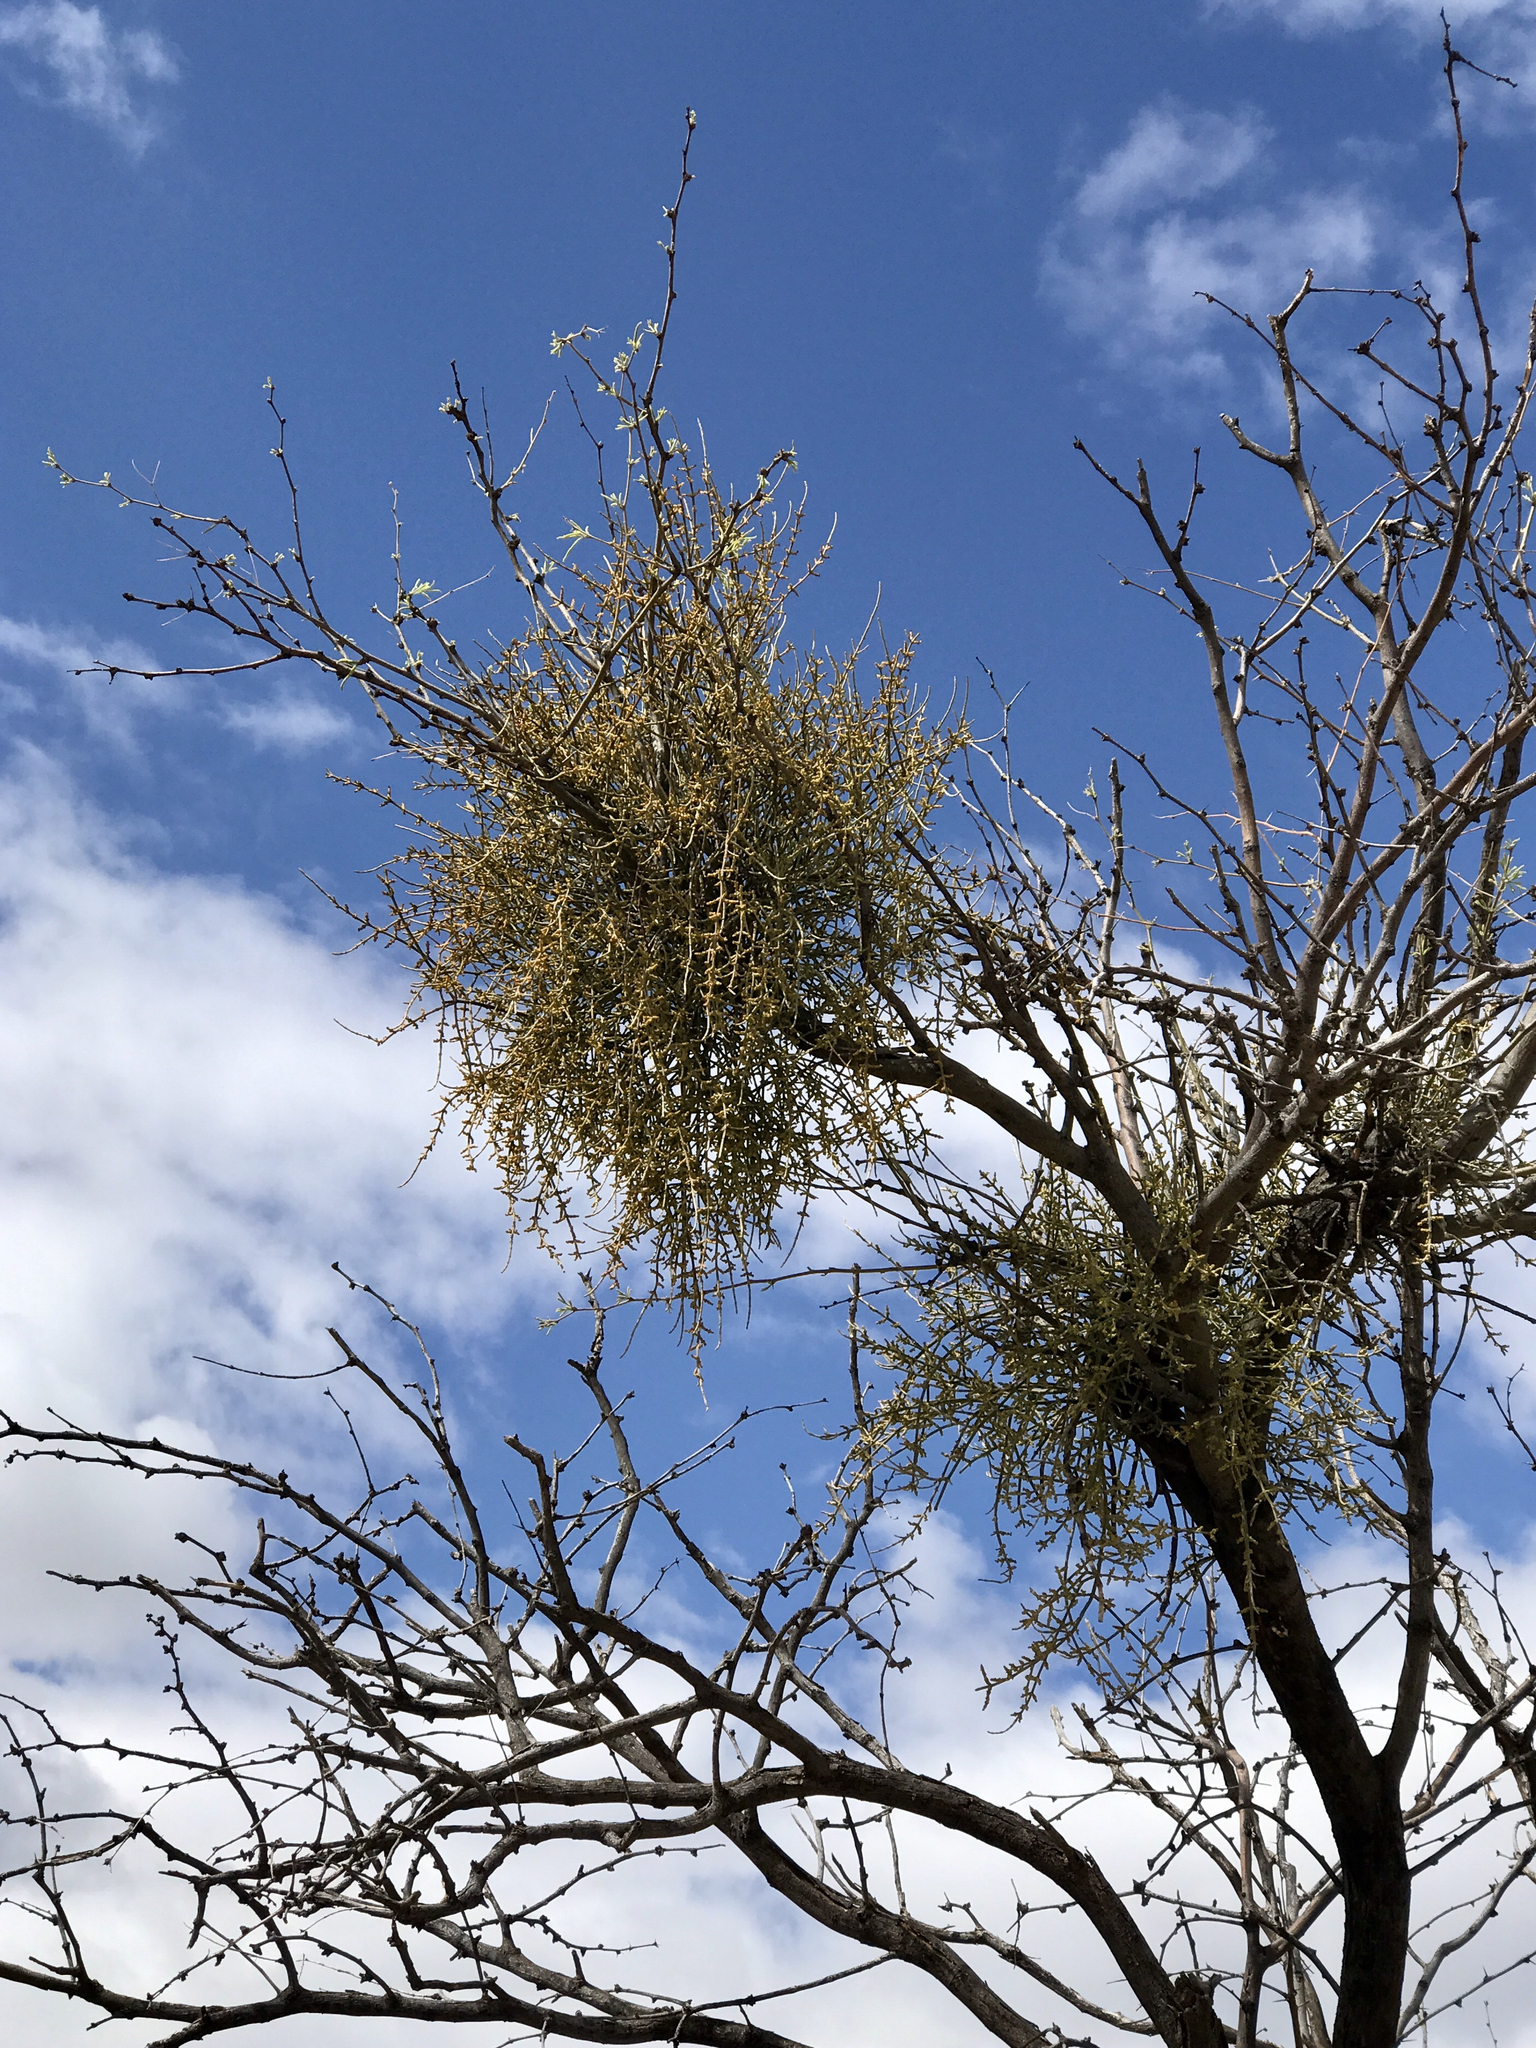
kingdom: Plantae
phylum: Tracheophyta
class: Magnoliopsida
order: Santalales
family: Viscaceae
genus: Phoradendron
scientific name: Phoradendron californicum
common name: Acacia mistletoe
